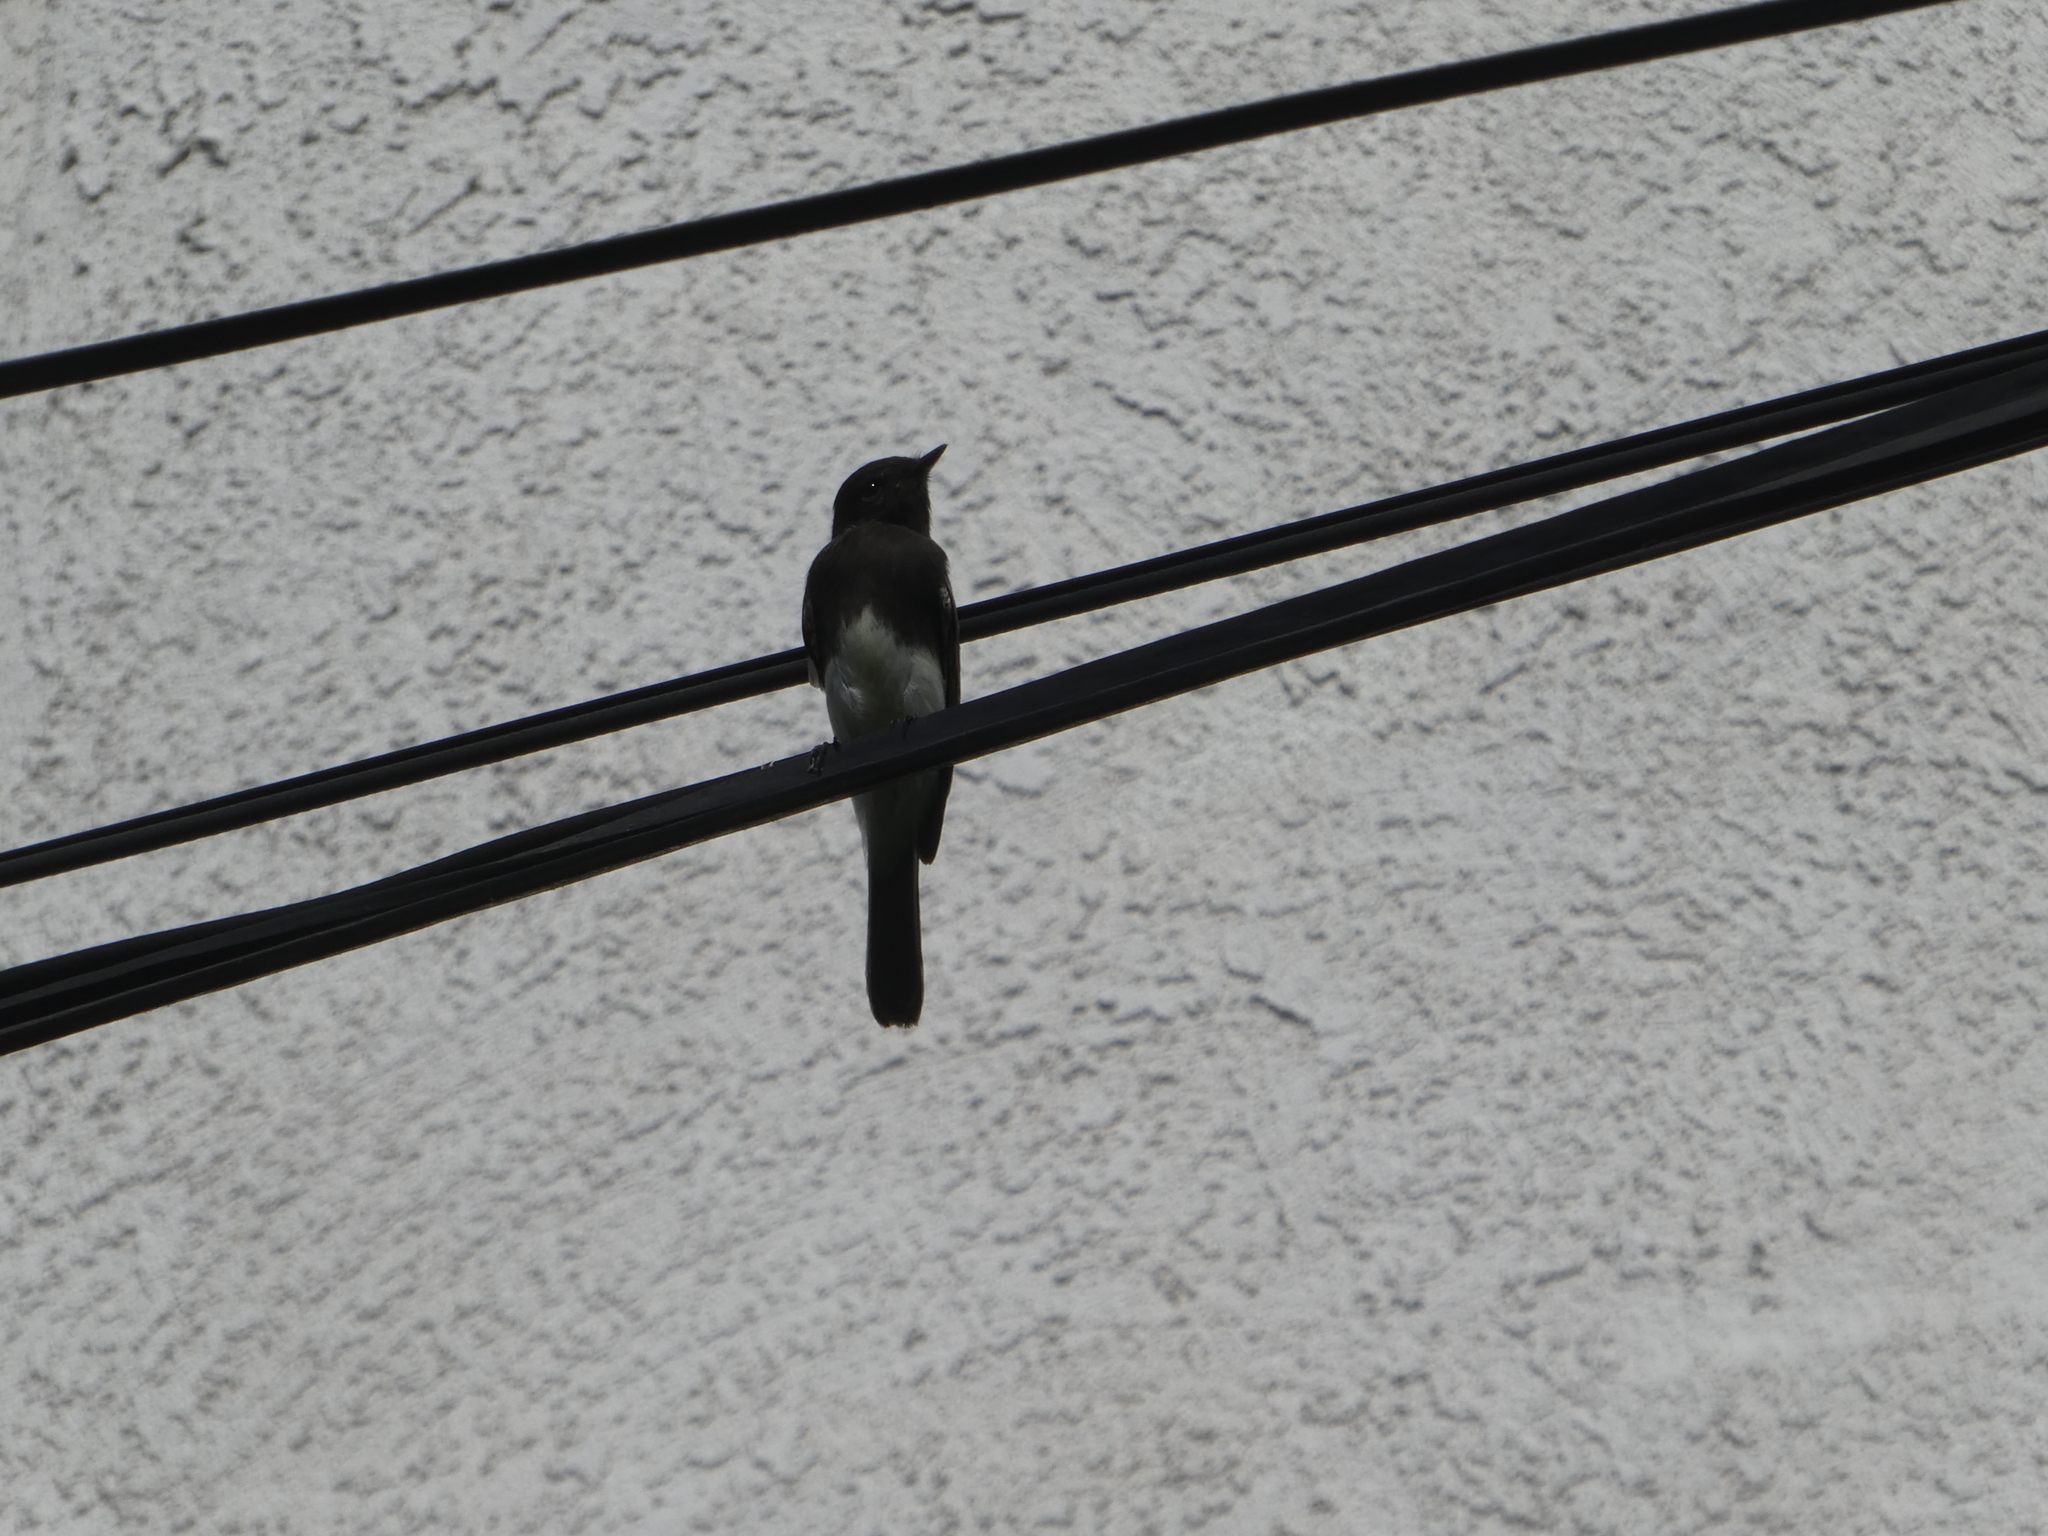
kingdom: Animalia
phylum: Chordata
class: Aves
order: Passeriformes
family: Tyrannidae
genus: Sayornis
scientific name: Sayornis nigricans
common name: Black phoebe
